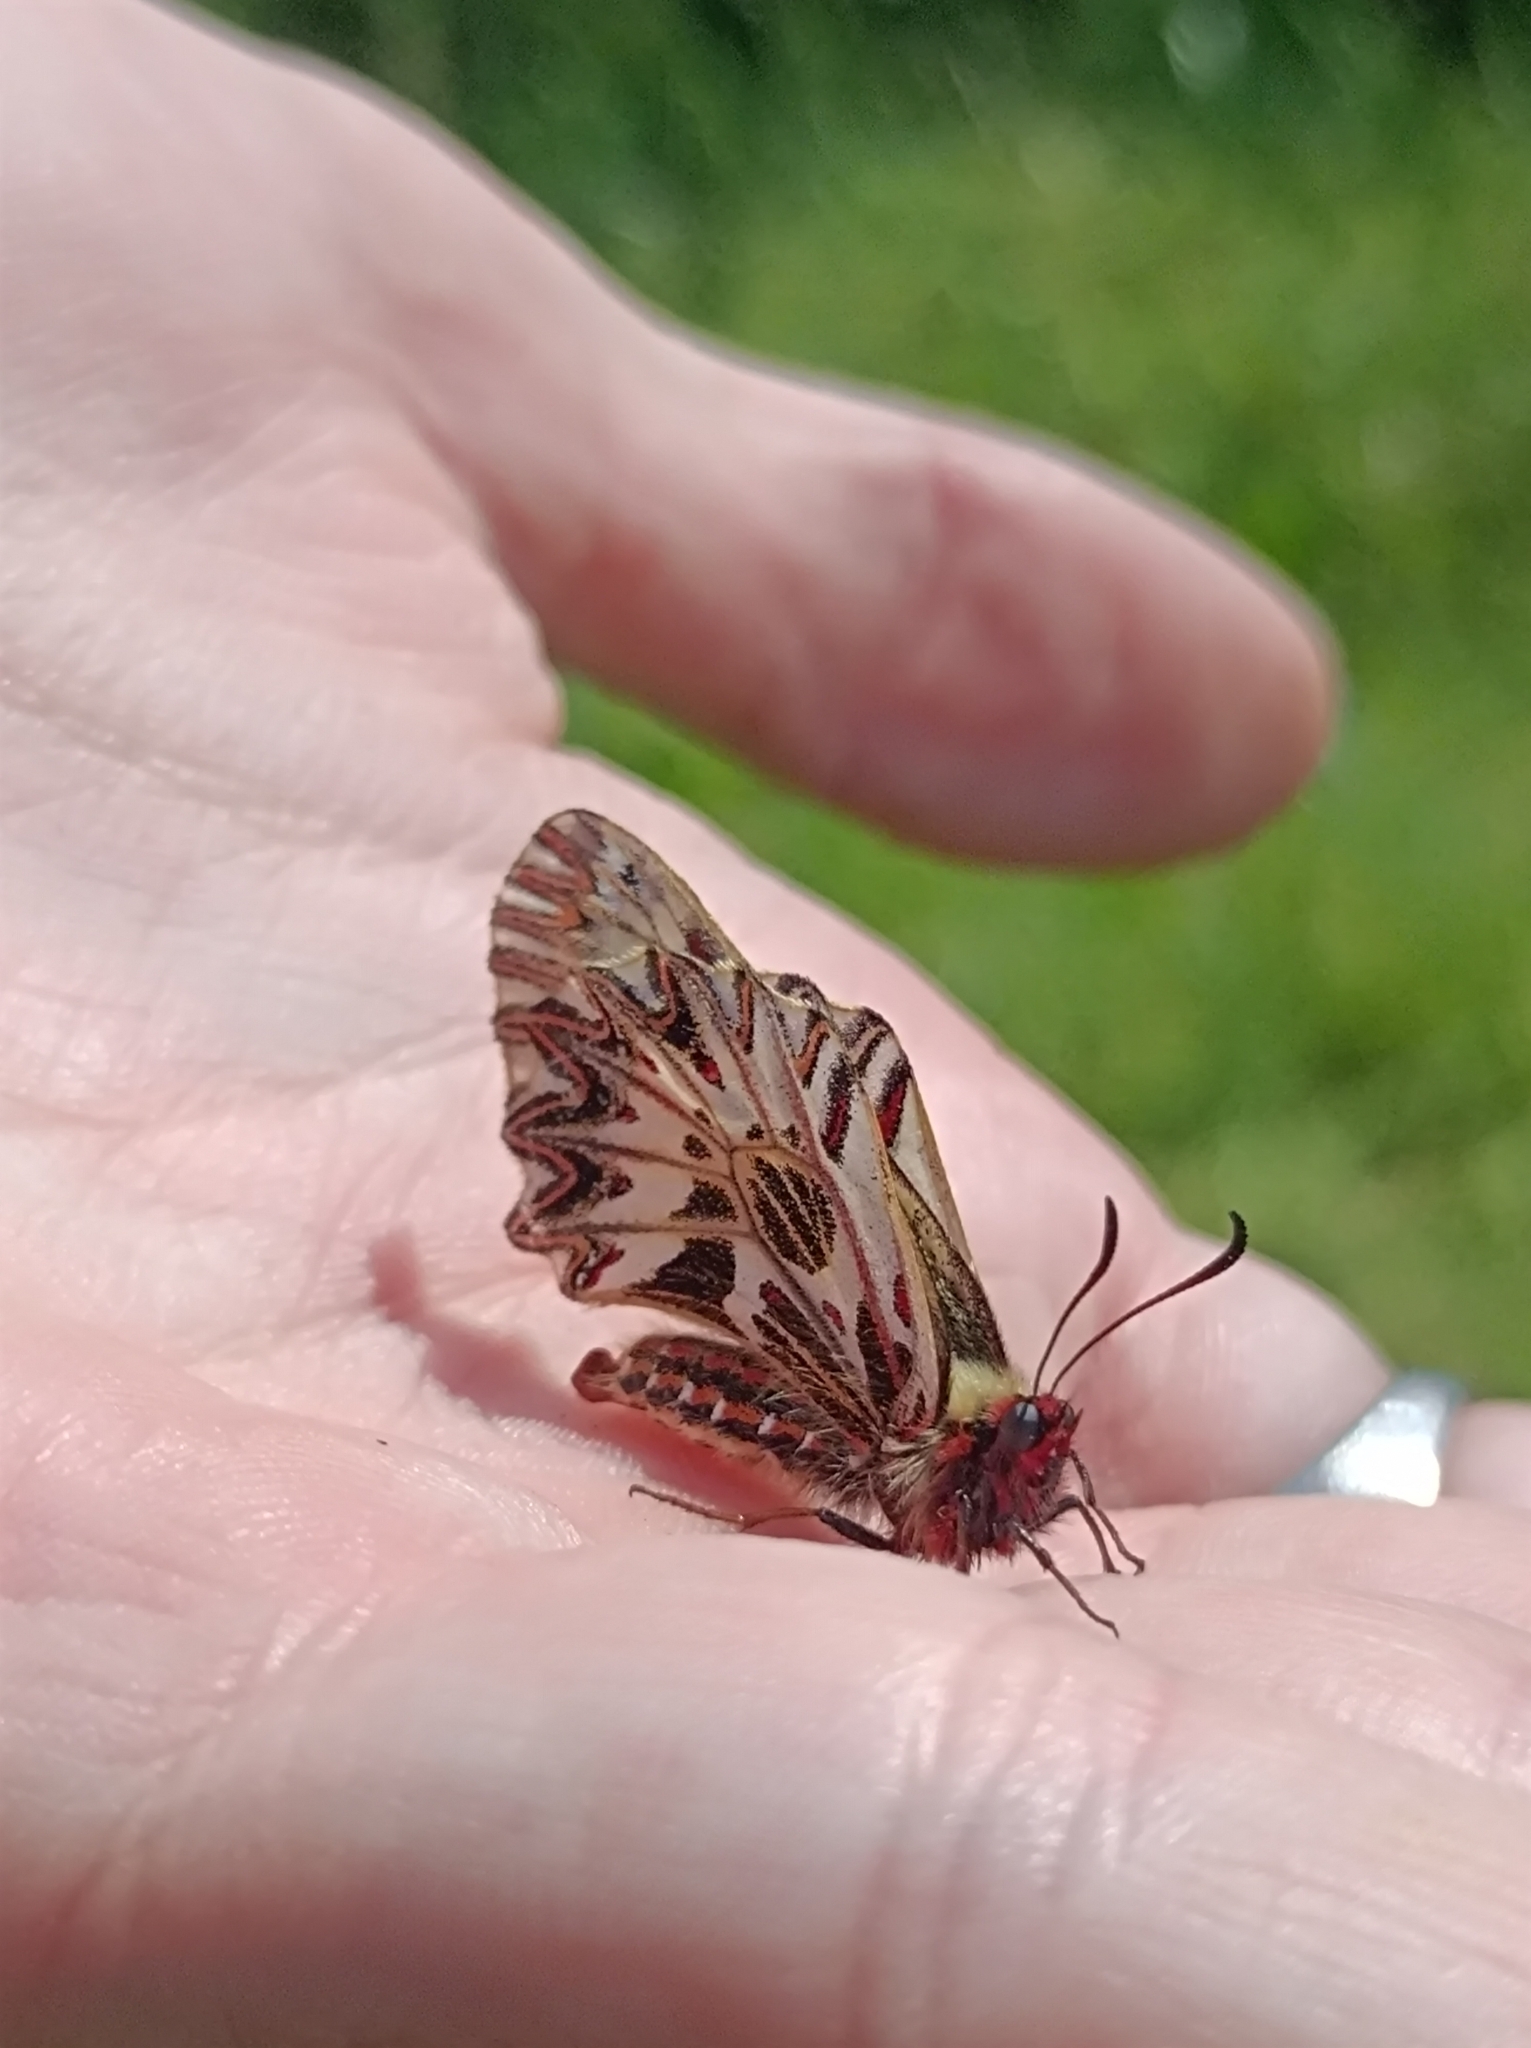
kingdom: Animalia
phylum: Arthropoda
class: Insecta
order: Lepidoptera
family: Papilionidae
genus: Zerynthia
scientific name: Zerynthia polyxena
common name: Southern festoon
